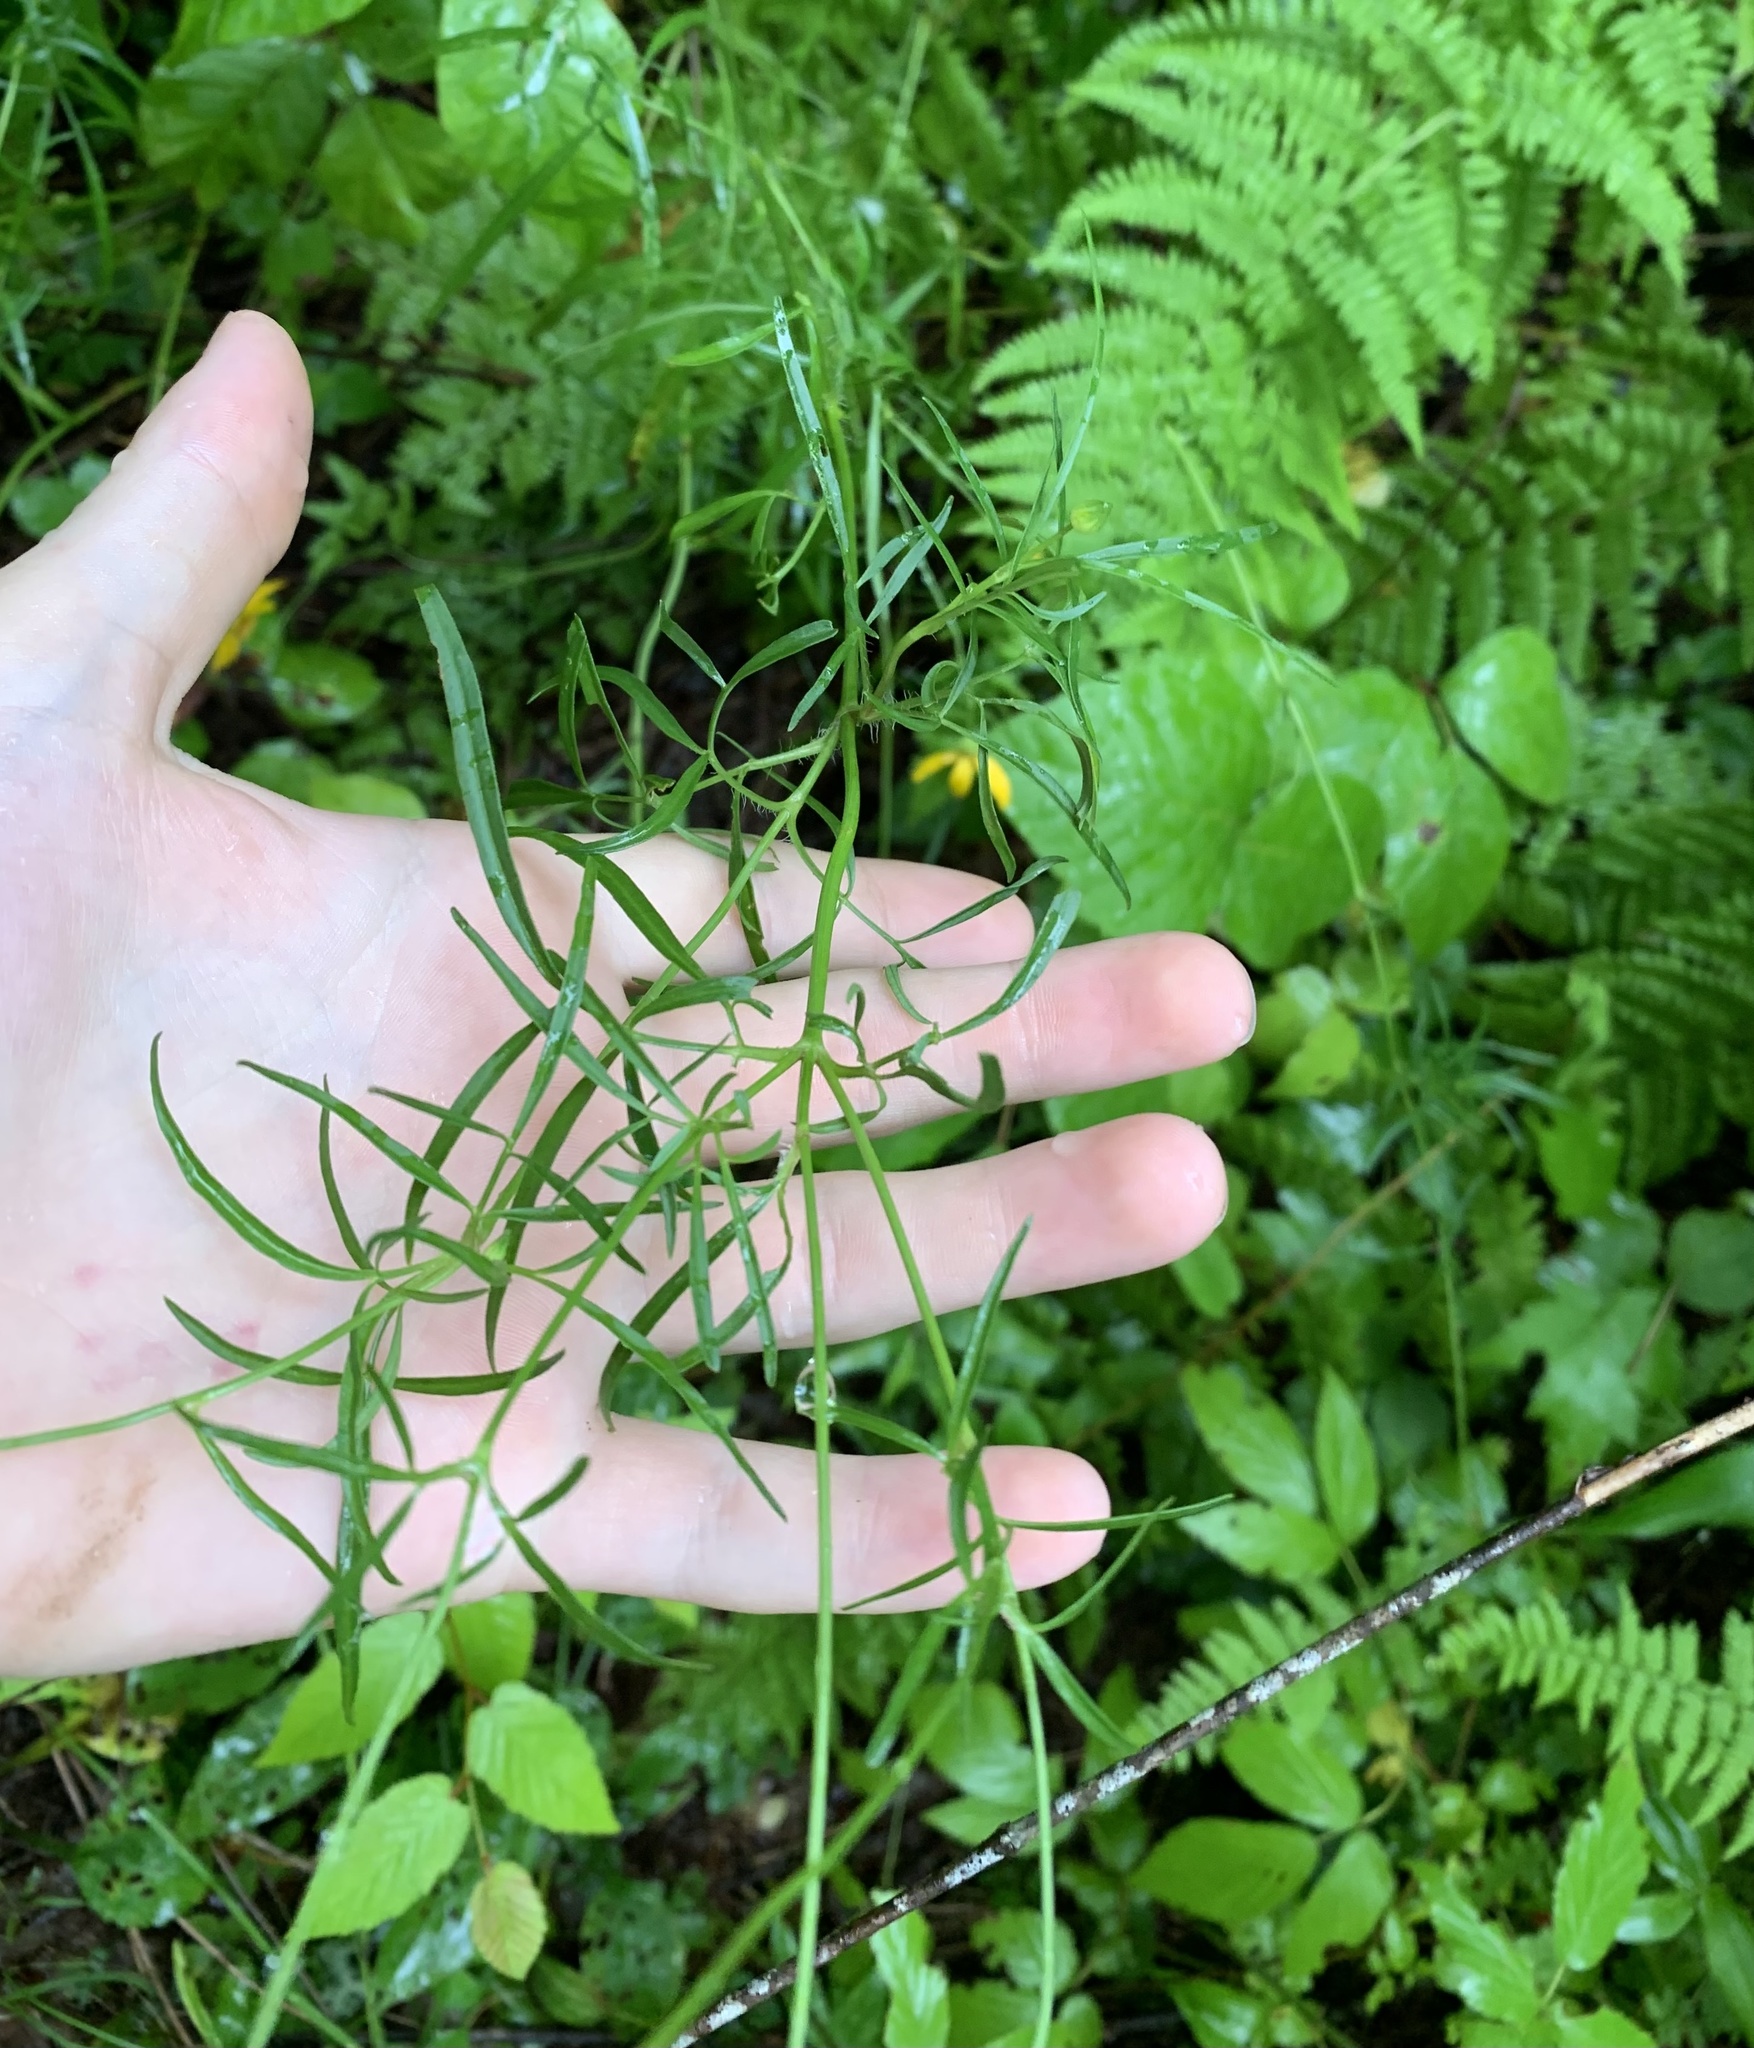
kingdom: Plantae
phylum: Tracheophyta
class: Magnoliopsida
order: Asterales
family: Asteraceae
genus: Coreopsis
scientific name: Coreopsis lanceolata
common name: Garden coreopsis
